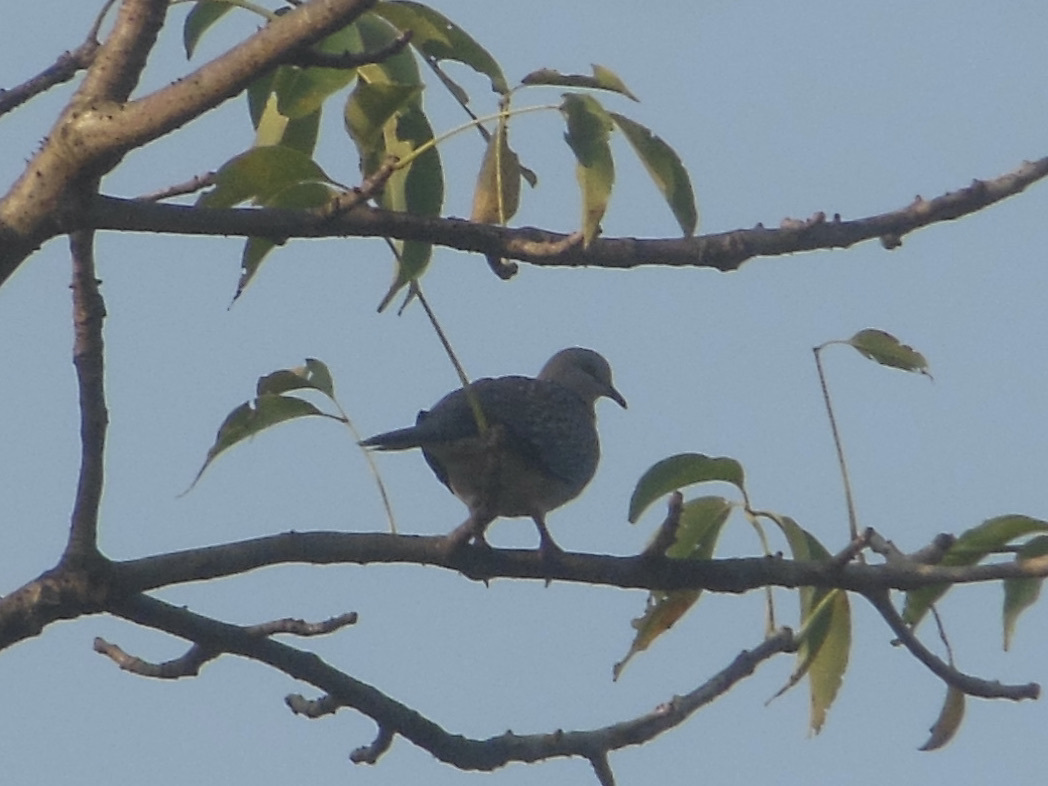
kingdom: Animalia
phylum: Chordata
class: Aves
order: Columbiformes
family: Columbidae
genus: Spilopelia
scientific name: Spilopelia chinensis
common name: Spotted dove
